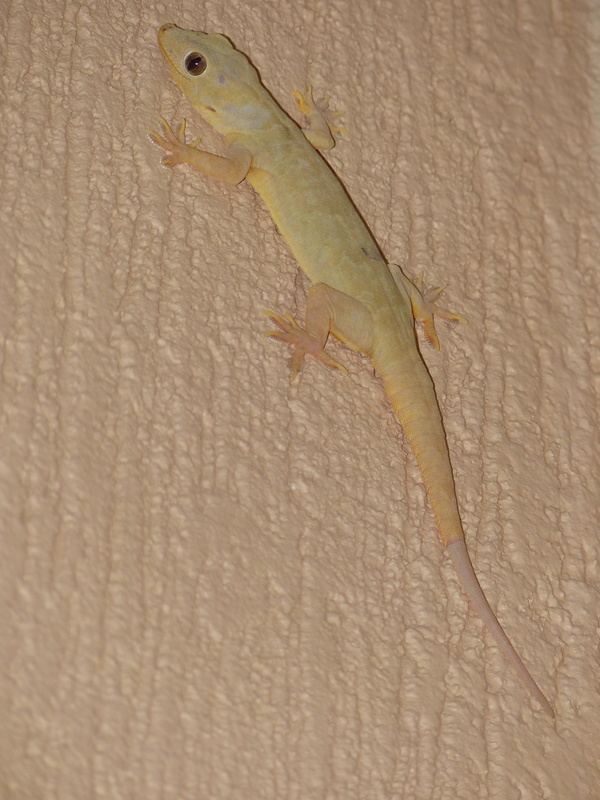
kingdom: Animalia
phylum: Chordata
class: Squamata
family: Gekkonidae
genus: Hemidactylus
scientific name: Hemidactylus flaviviridis
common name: Northern house gecko
